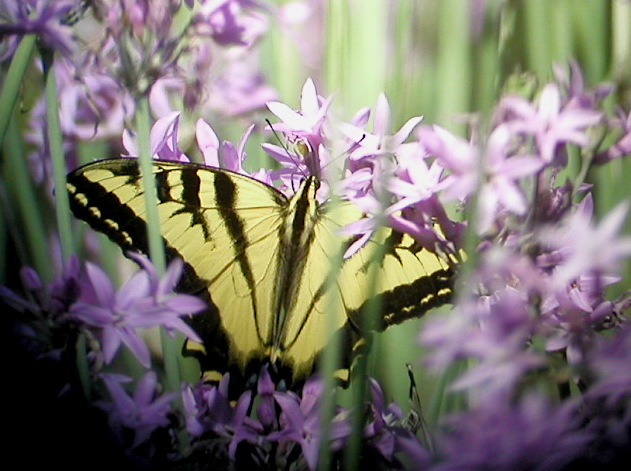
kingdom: Animalia
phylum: Arthropoda
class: Insecta
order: Lepidoptera
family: Papilionidae
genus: Papilio
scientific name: Papilio glaucus
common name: Tiger swallowtail
